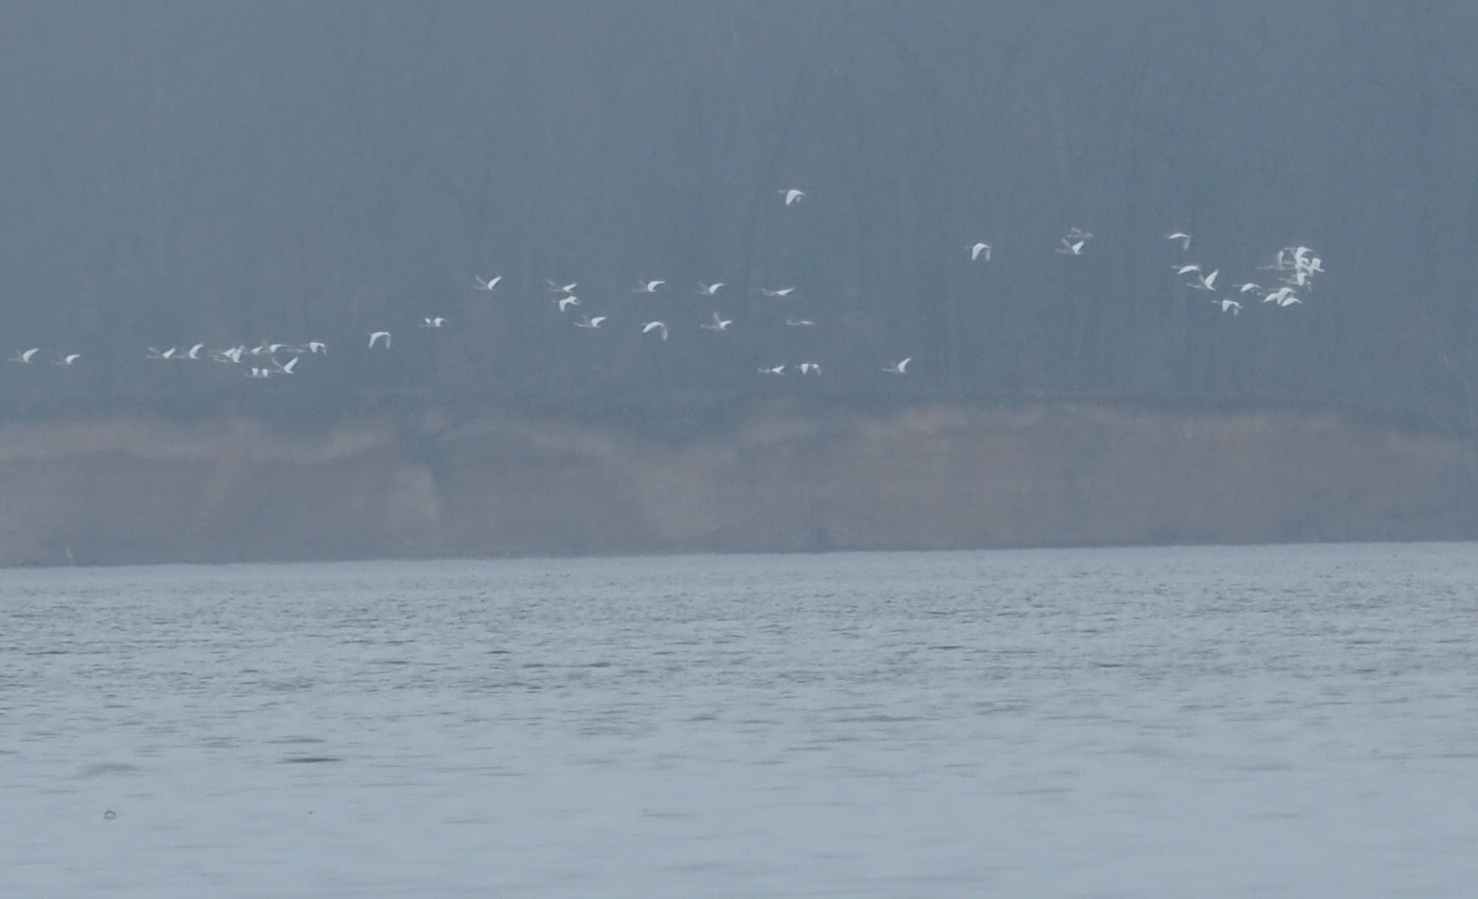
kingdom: Animalia
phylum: Chordata
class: Aves
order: Anseriformes
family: Anatidae
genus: Cygnus
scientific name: Cygnus columbianus
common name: Tundra swan
